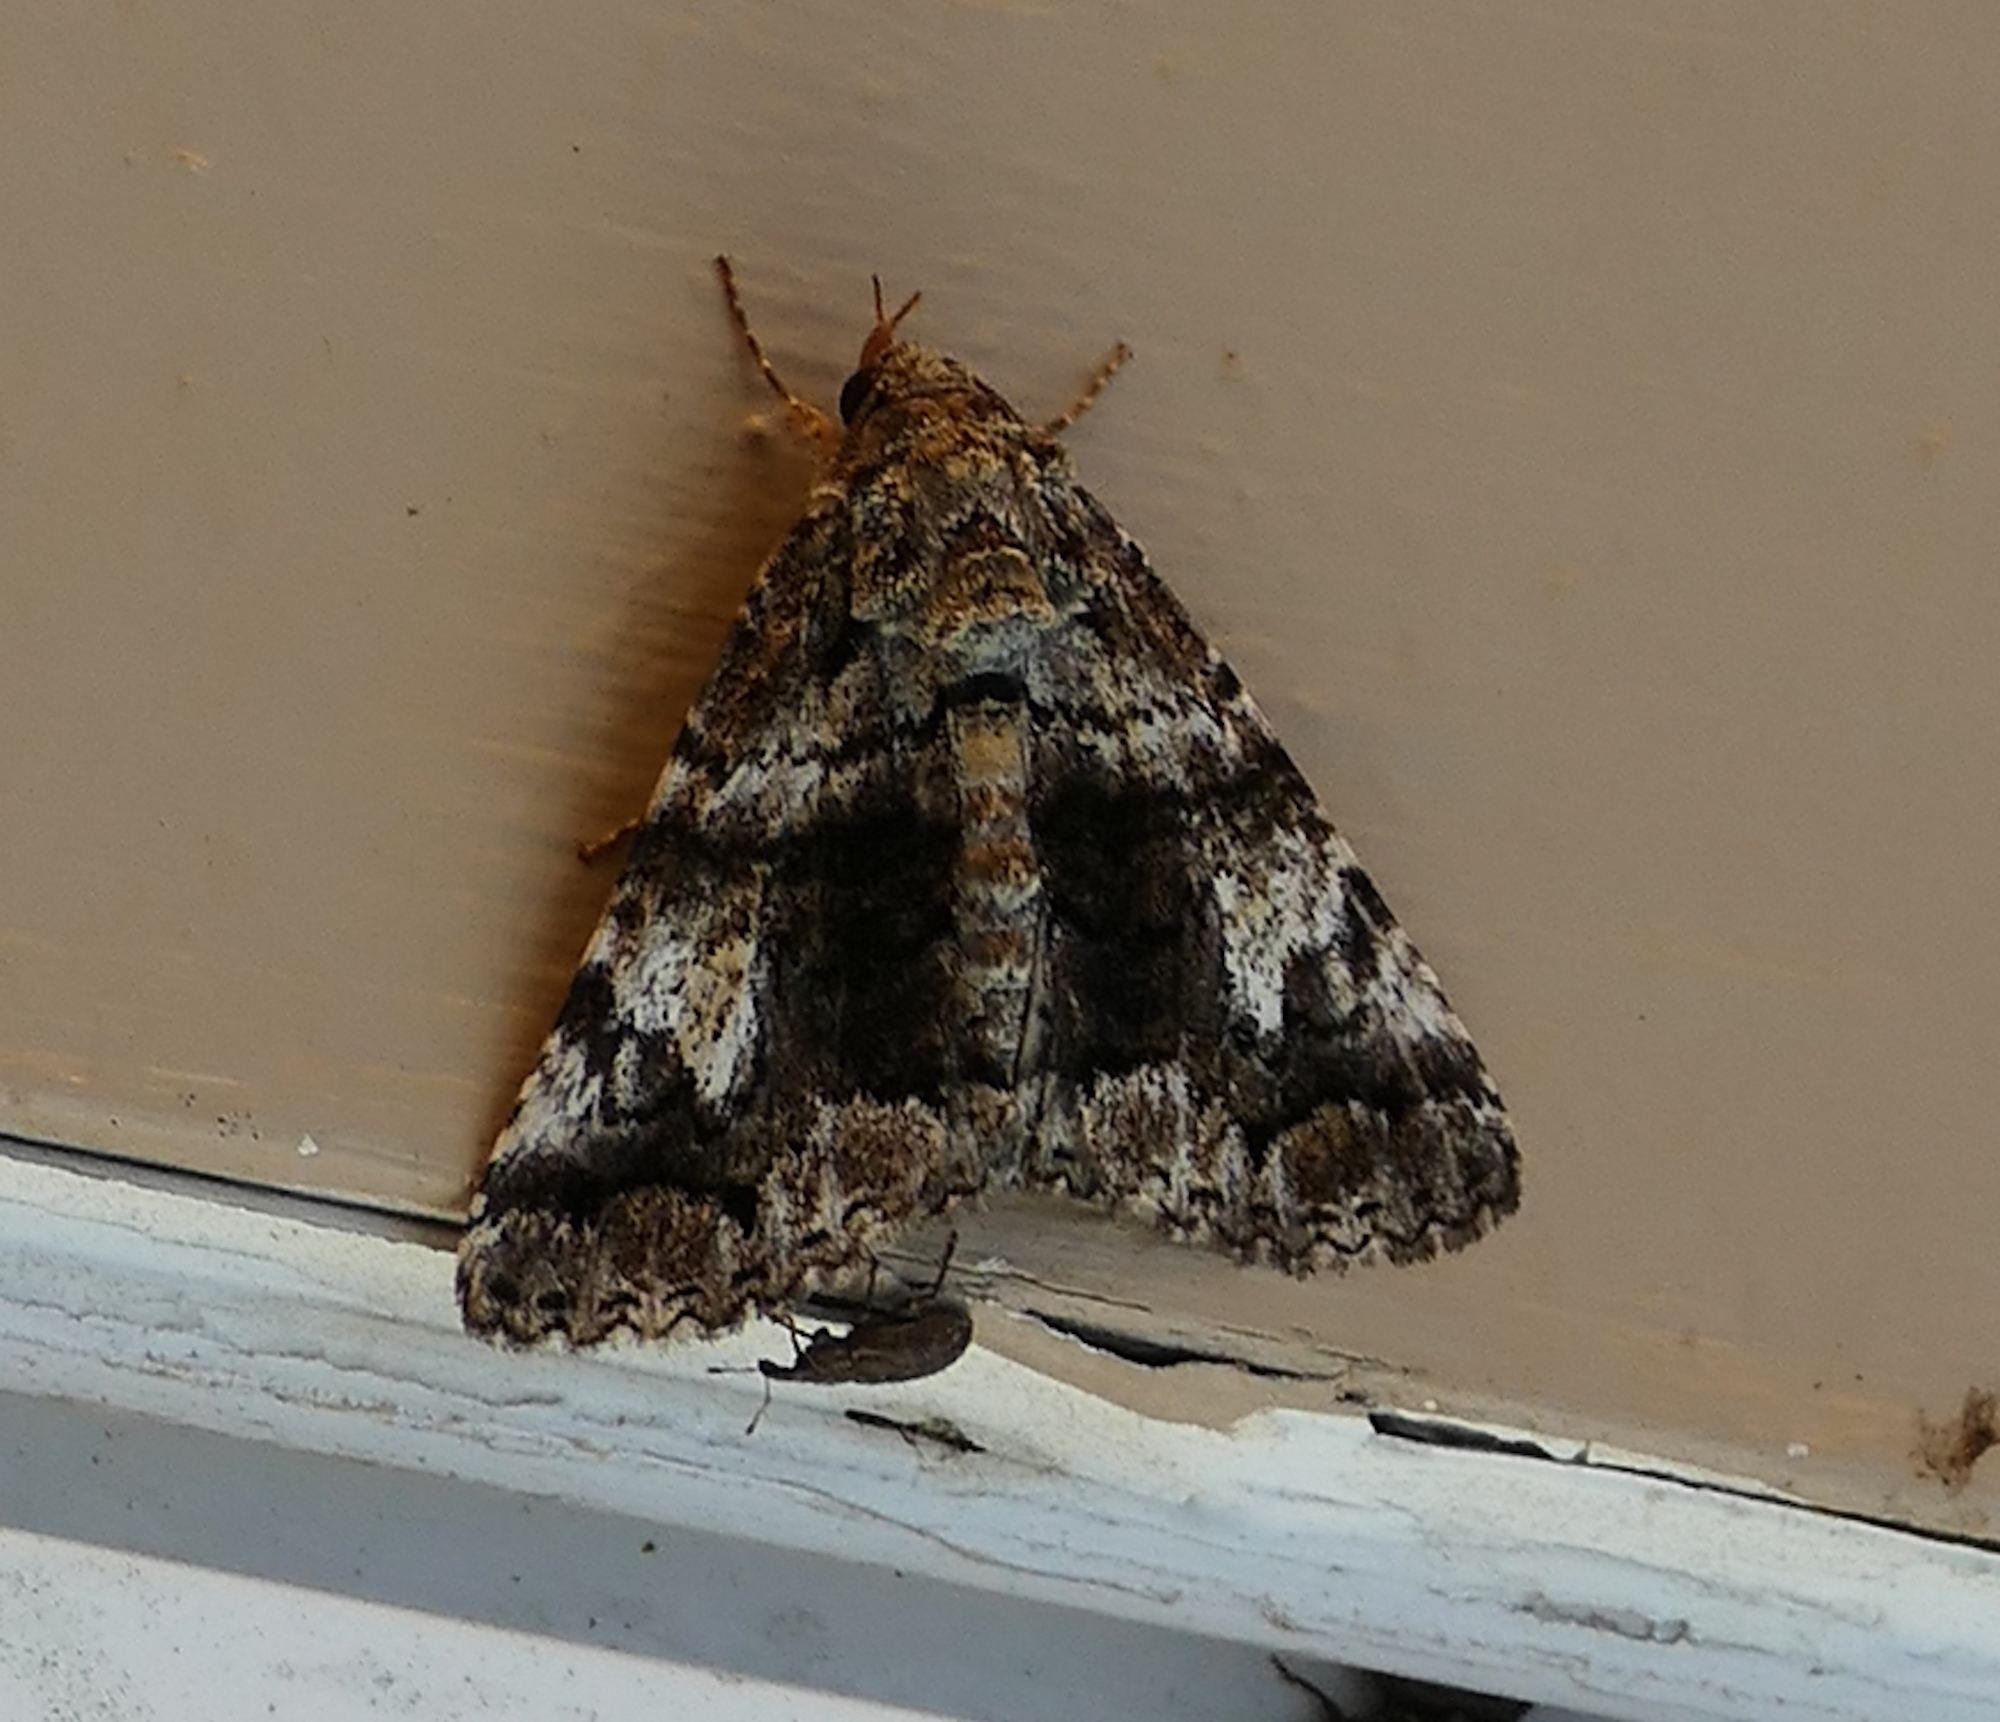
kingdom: Animalia
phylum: Arthropoda
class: Insecta
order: Lepidoptera
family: Erebidae
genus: Metria
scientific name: Metria amella
